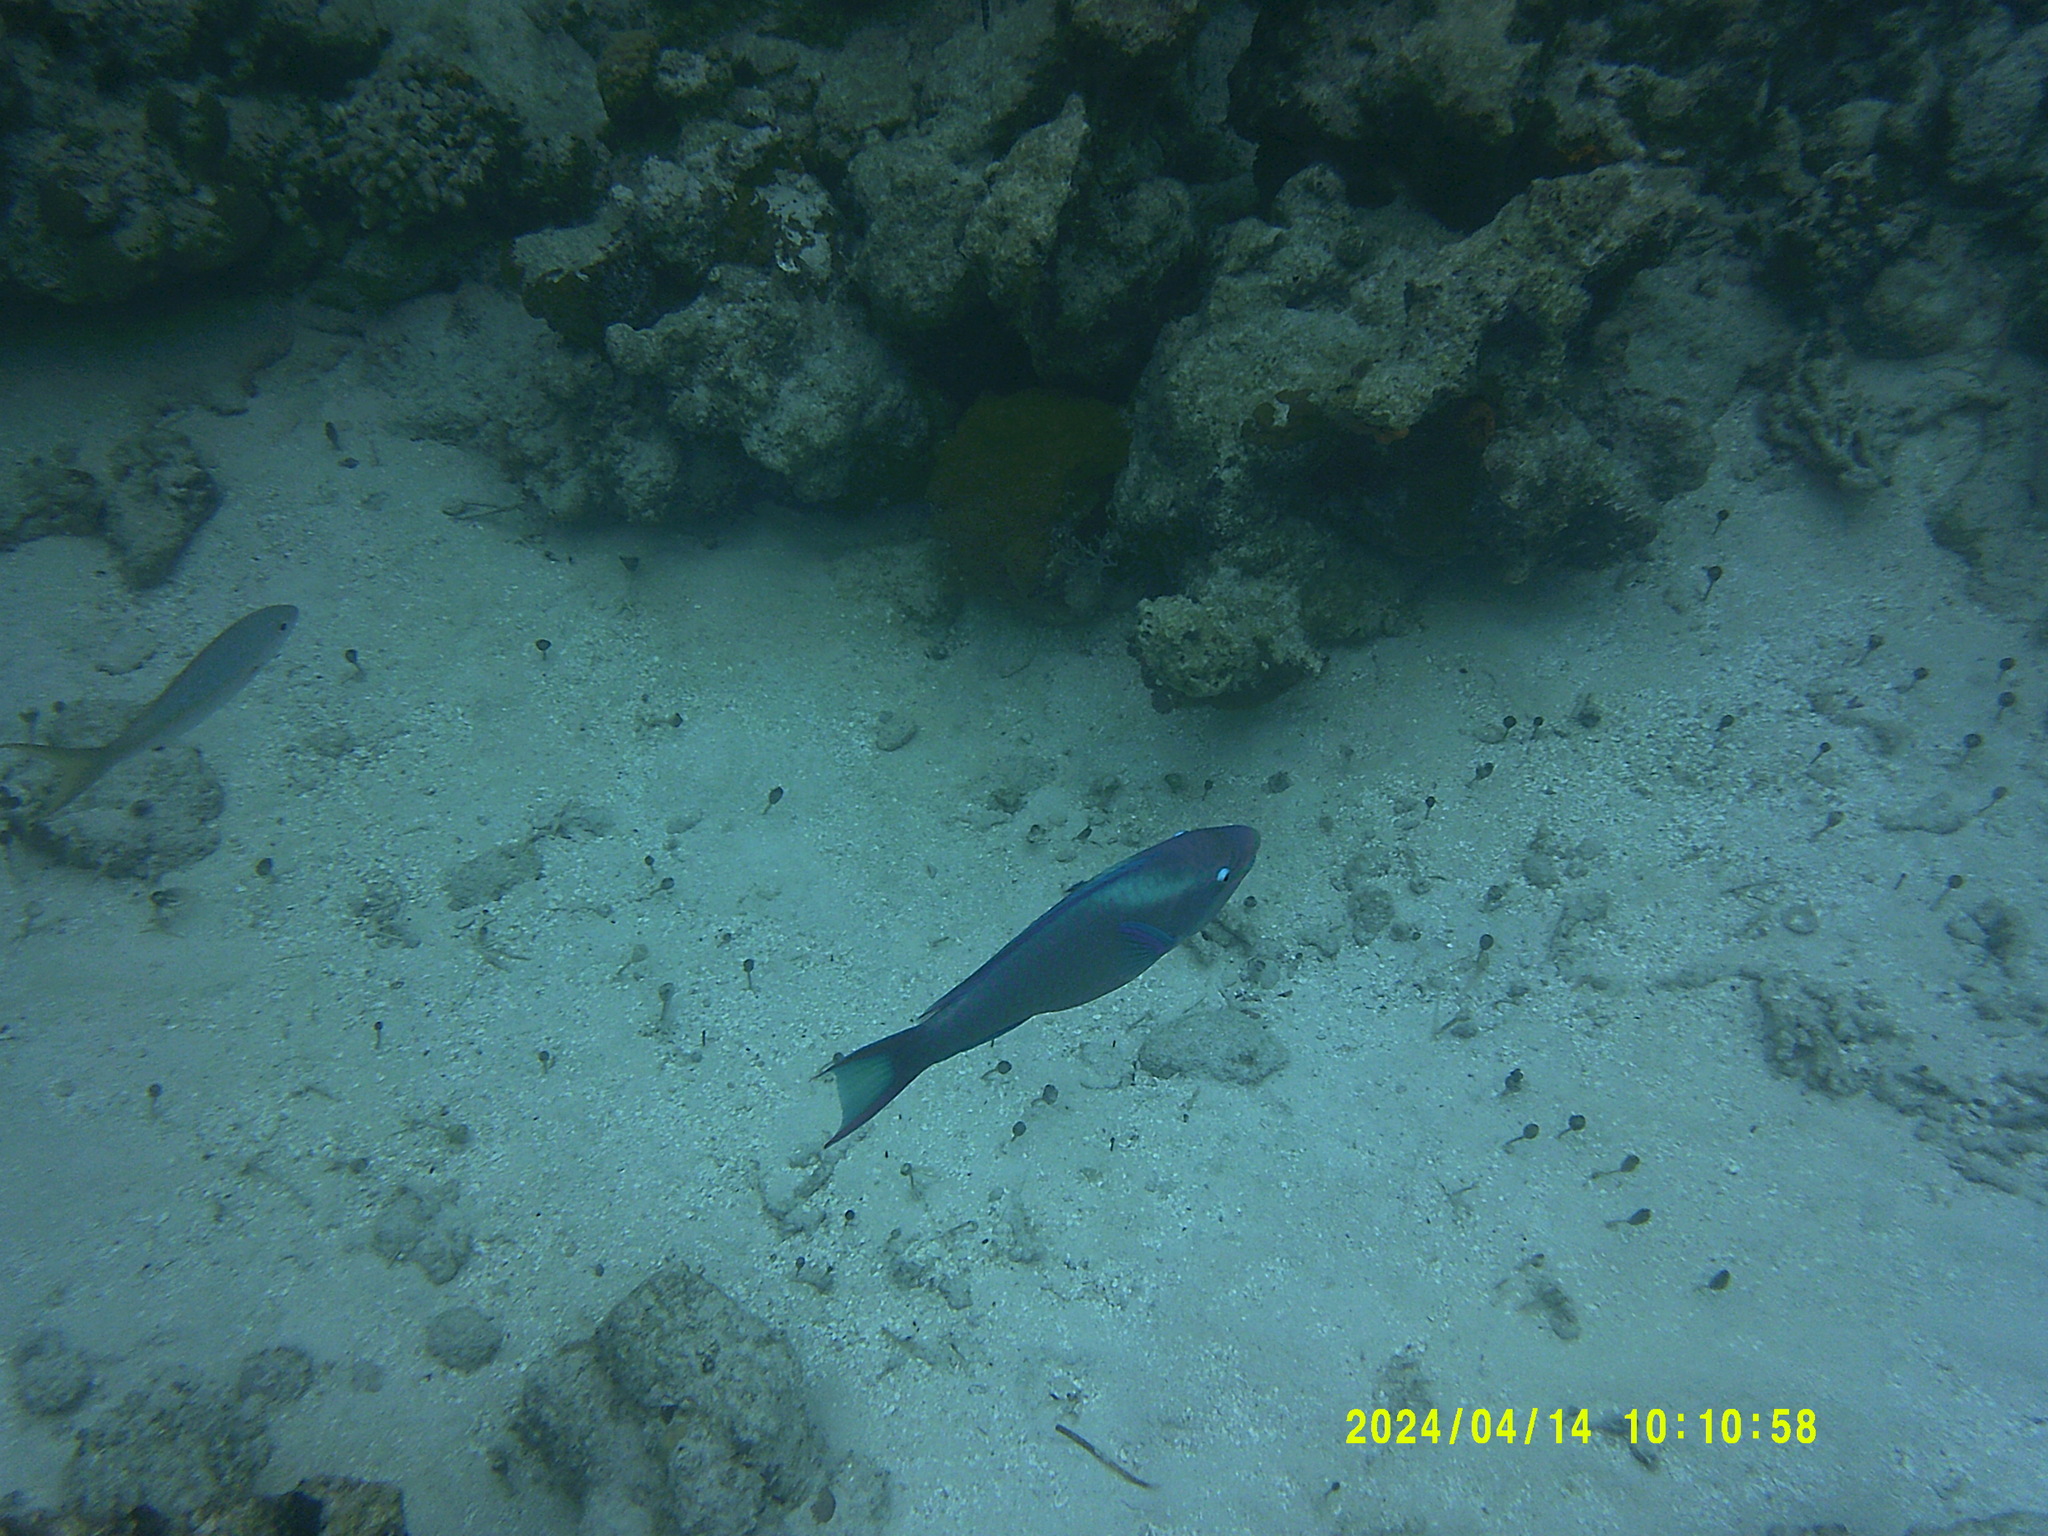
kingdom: Animalia
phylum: Chordata
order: Perciformes
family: Scaridae
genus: Scarus
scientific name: Scarus vetula
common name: Queen parrotfish
